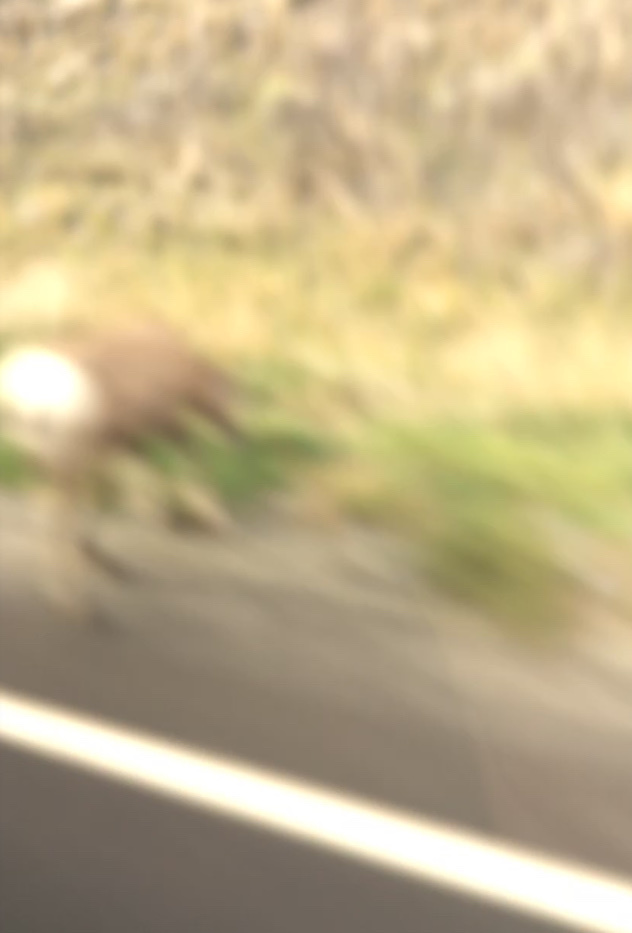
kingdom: Animalia
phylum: Chordata
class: Mammalia
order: Artiodactyla
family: Bovidae
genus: Ovis
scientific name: Ovis canadensis
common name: Bighorn sheep
